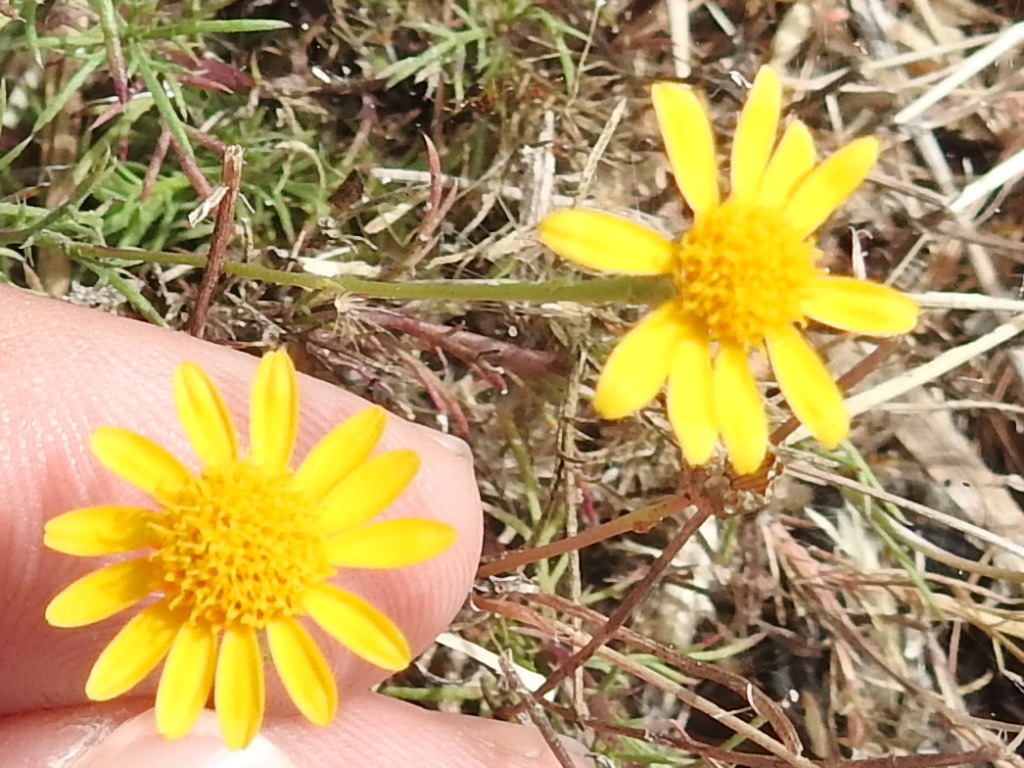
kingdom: Plantae
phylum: Tracheophyta
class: Magnoliopsida
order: Asterales
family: Asteraceae
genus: Thymophylla
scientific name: Thymophylla tenuiloba
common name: Dahlberg's daisy
